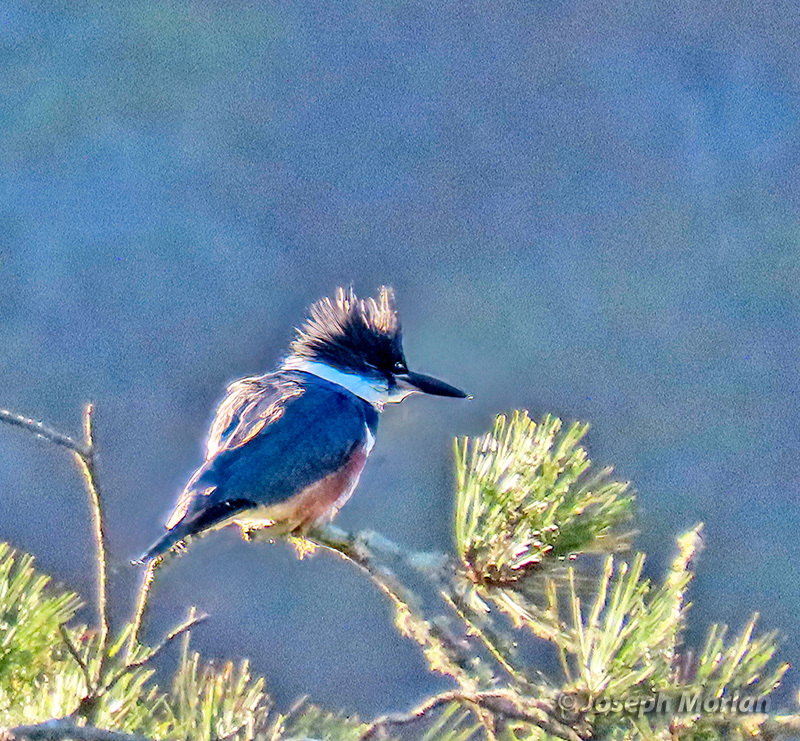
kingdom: Animalia
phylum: Chordata
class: Aves
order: Coraciiformes
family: Alcedinidae
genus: Megaceryle
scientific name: Megaceryle alcyon
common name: Belted kingfisher
